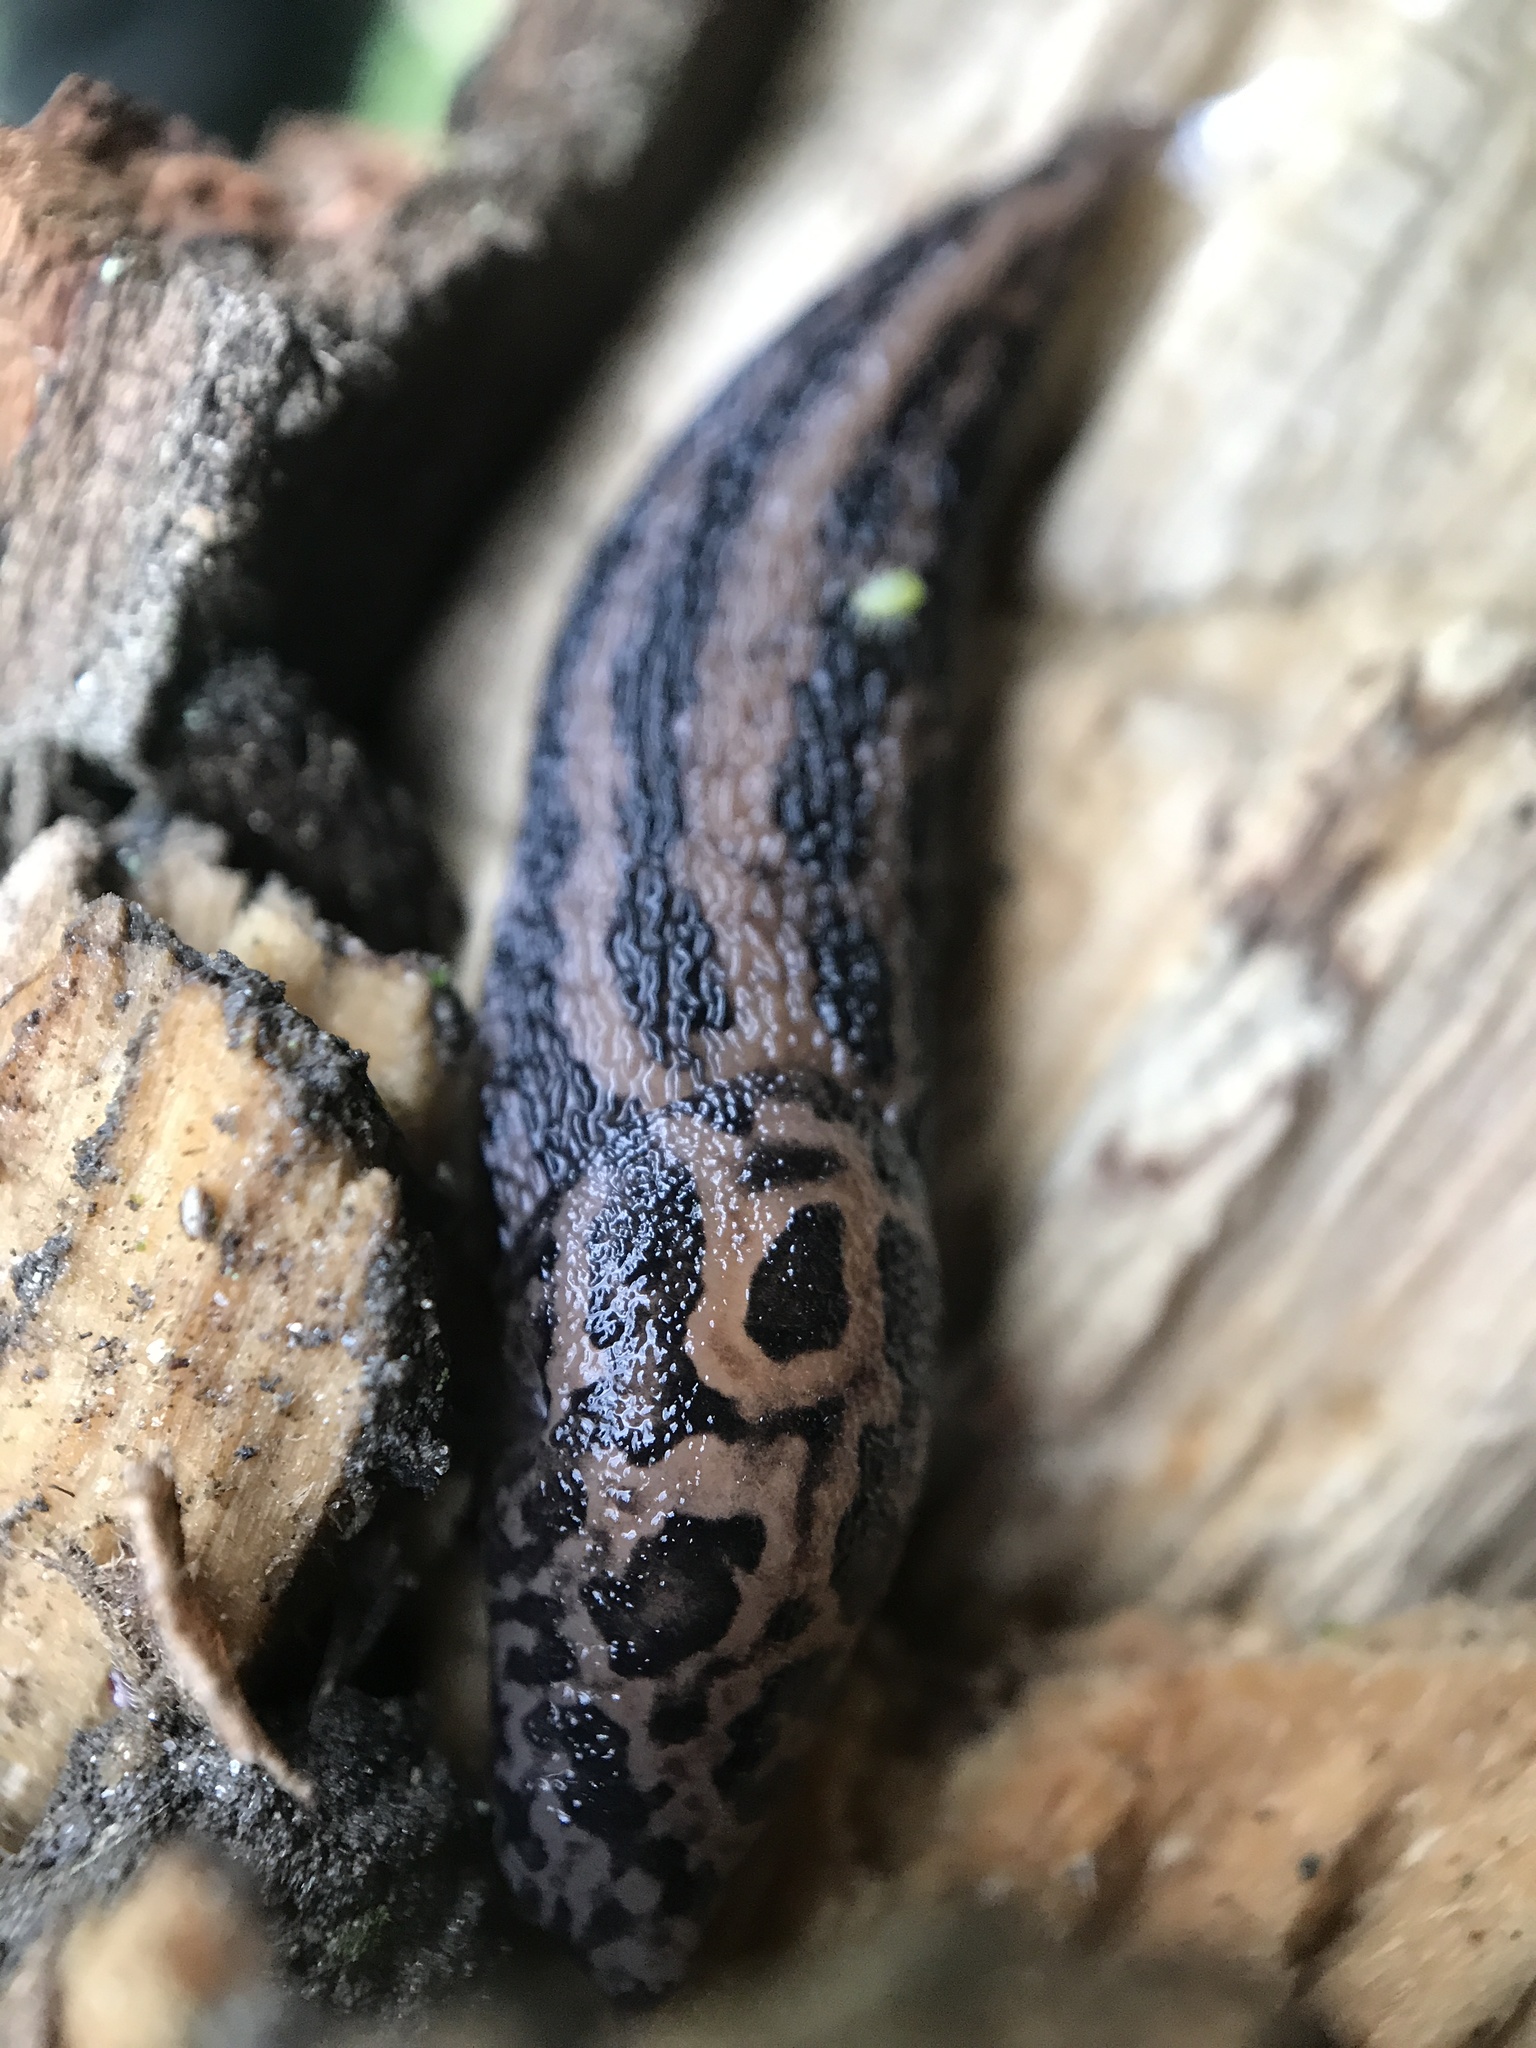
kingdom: Animalia
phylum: Mollusca
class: Gastropoda
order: Stylommatophora
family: Limacidae
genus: Limax
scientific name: Limax maximus
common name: Great grey slug
